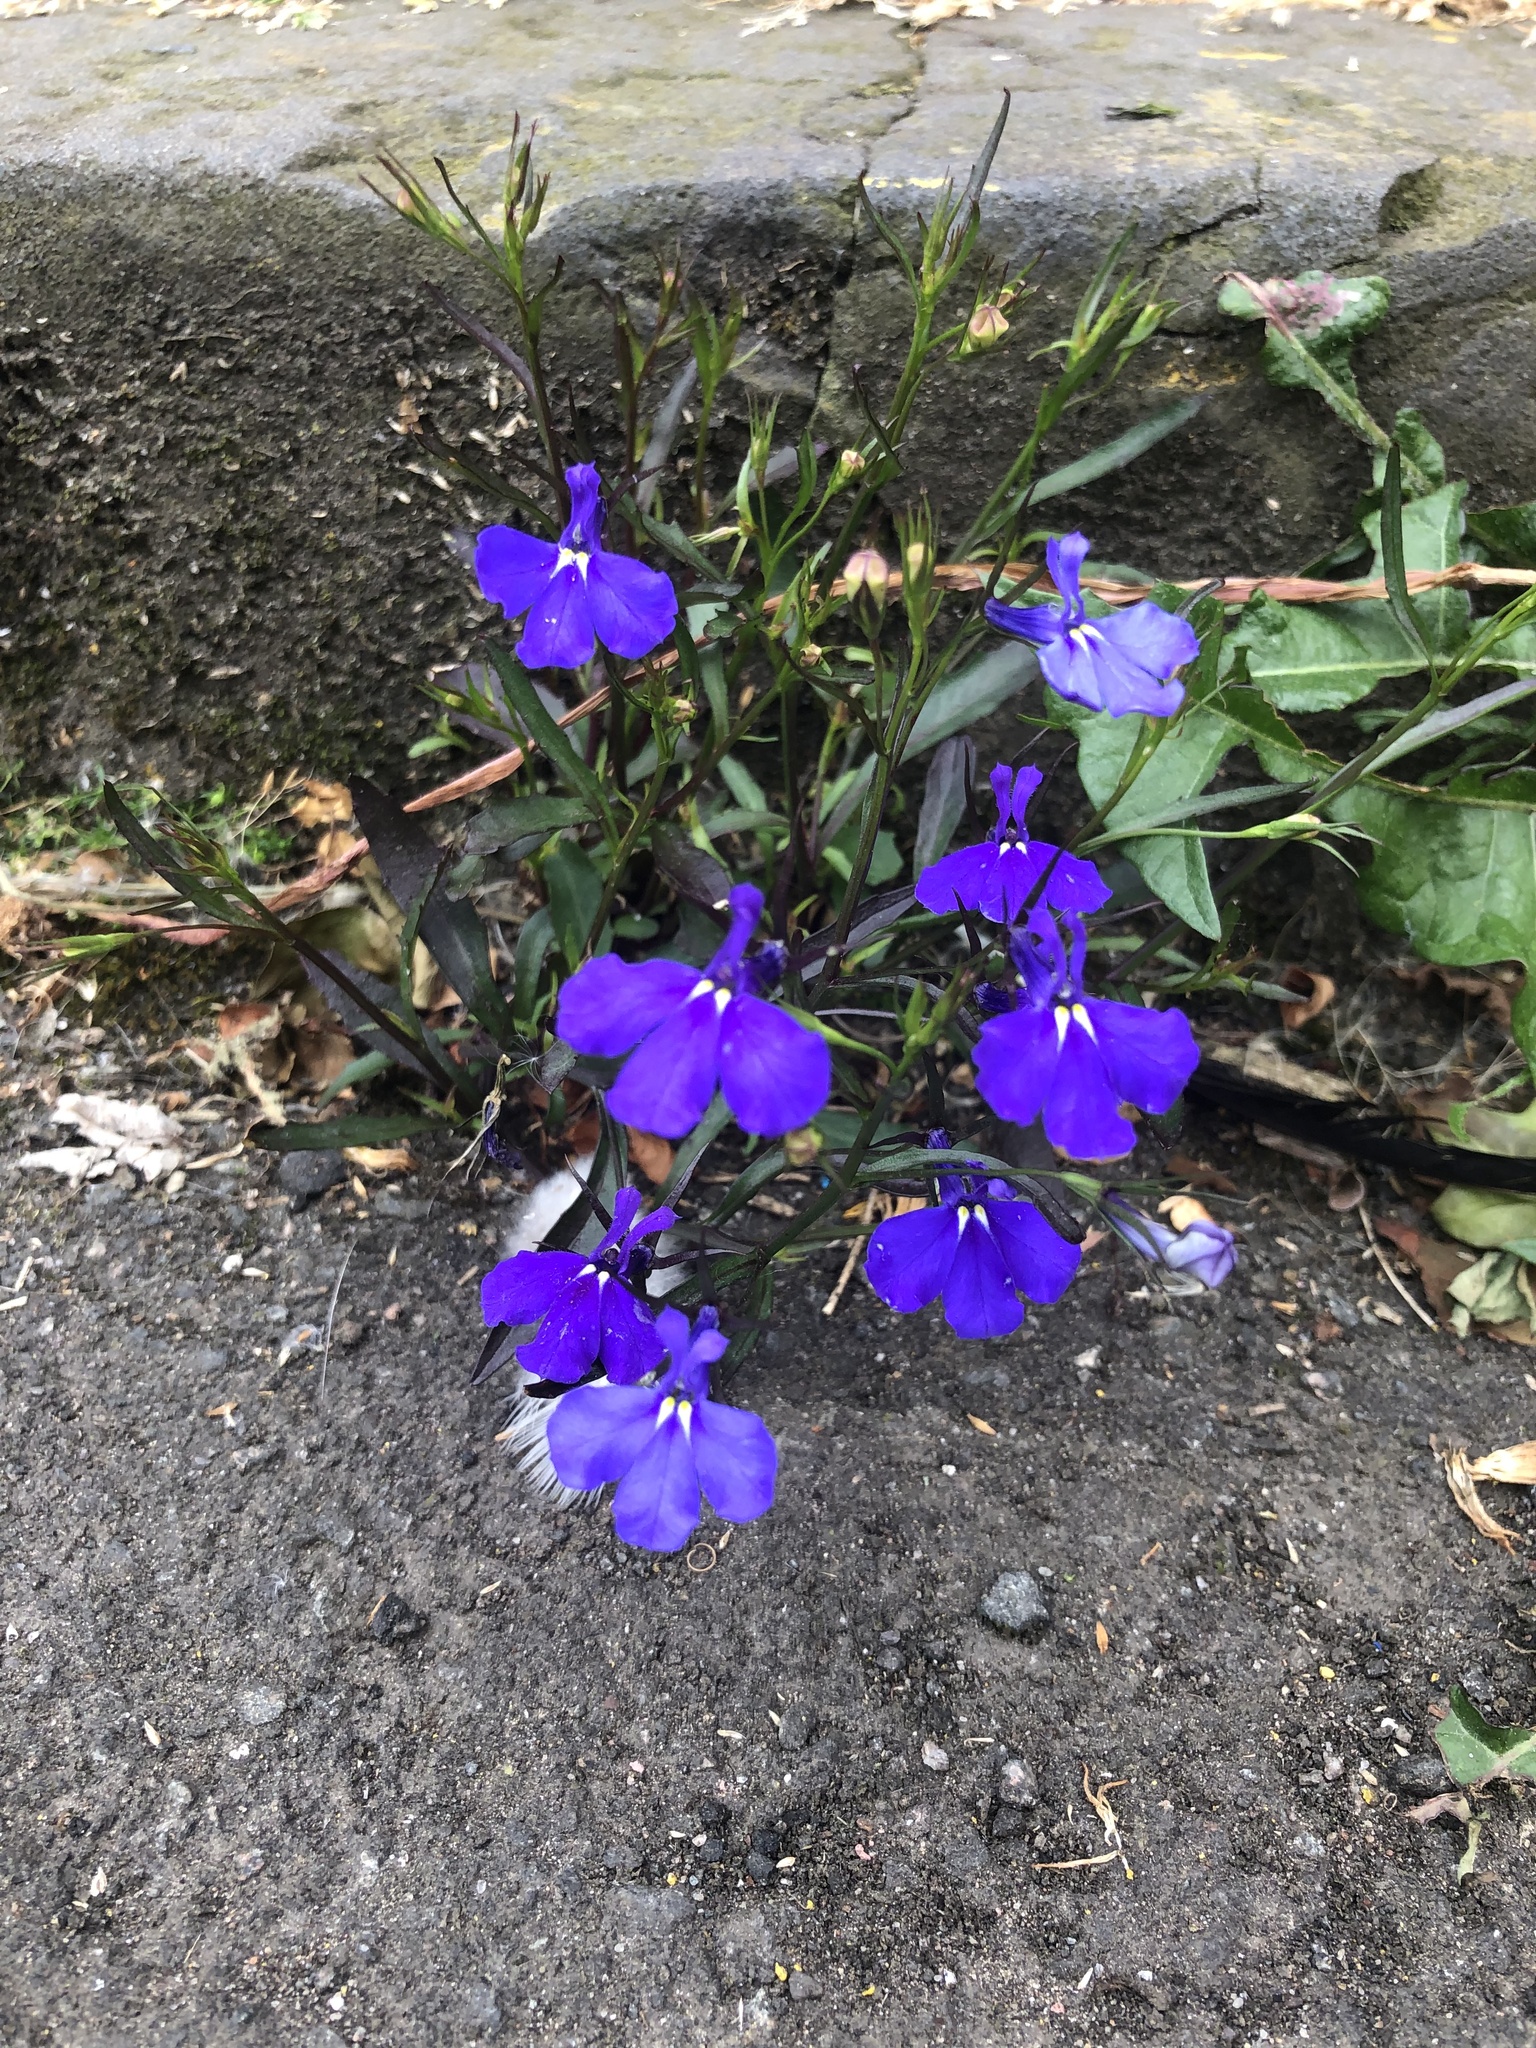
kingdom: Plantae
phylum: Tracheophyta
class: Magnoliopsida
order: Asterales
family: Campanulaceae
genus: Lobelia
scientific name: Lobelia erinus
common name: Edging lobelia
